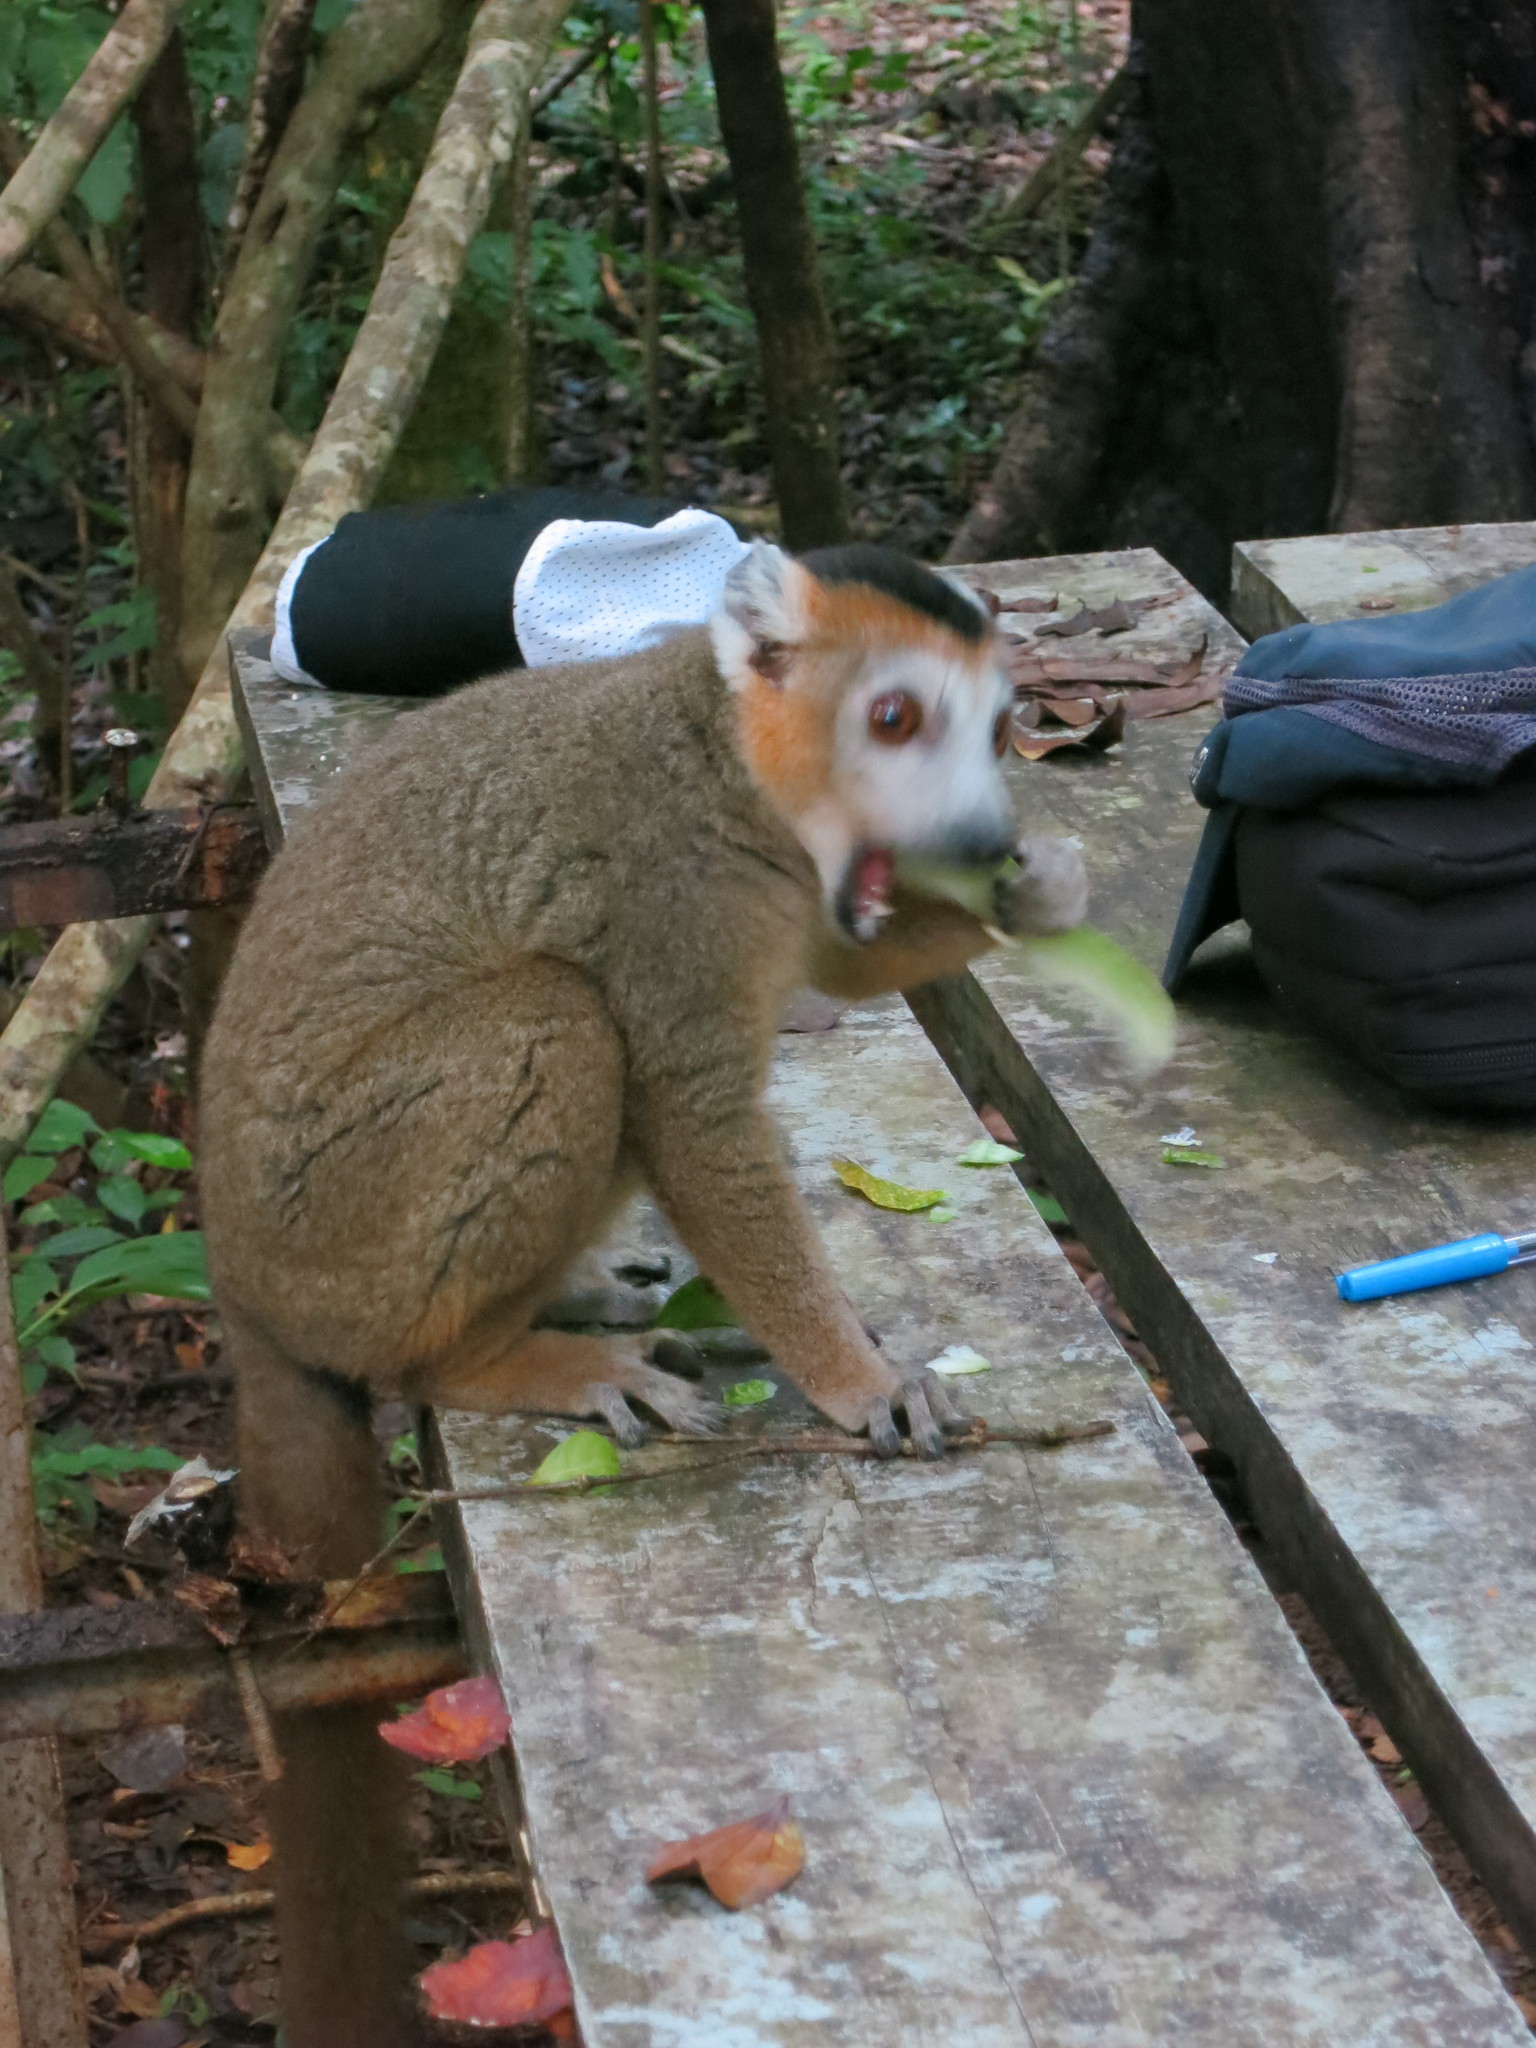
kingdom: Animalia
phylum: Chordata
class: Mammalia
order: Primates
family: Lemuridae
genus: Eulemur
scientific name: Eulemur coronatus
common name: Crowned lemur
